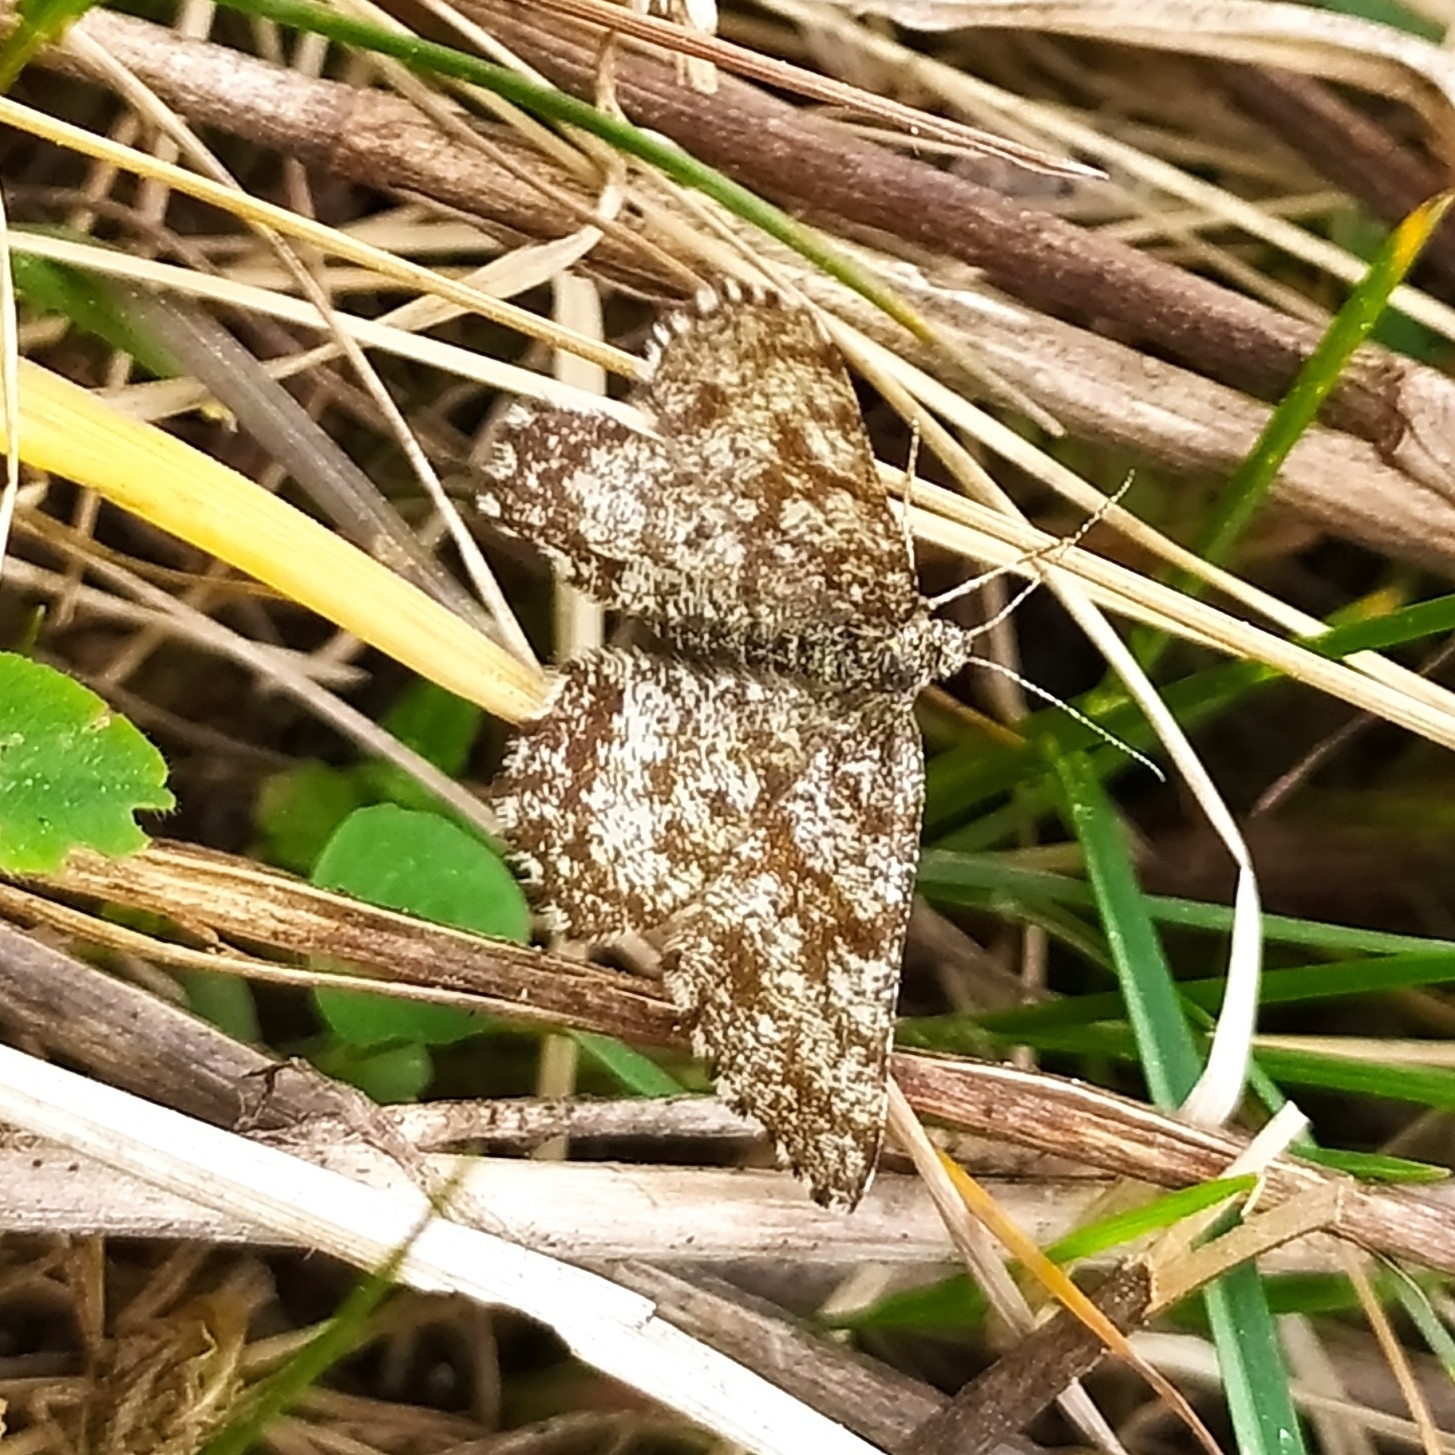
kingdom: Animalia
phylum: Arthropoda
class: Insecta
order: Lepidoptera
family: Geometridae
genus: Ematurga
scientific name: Ematurga atomaria
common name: Common heath
